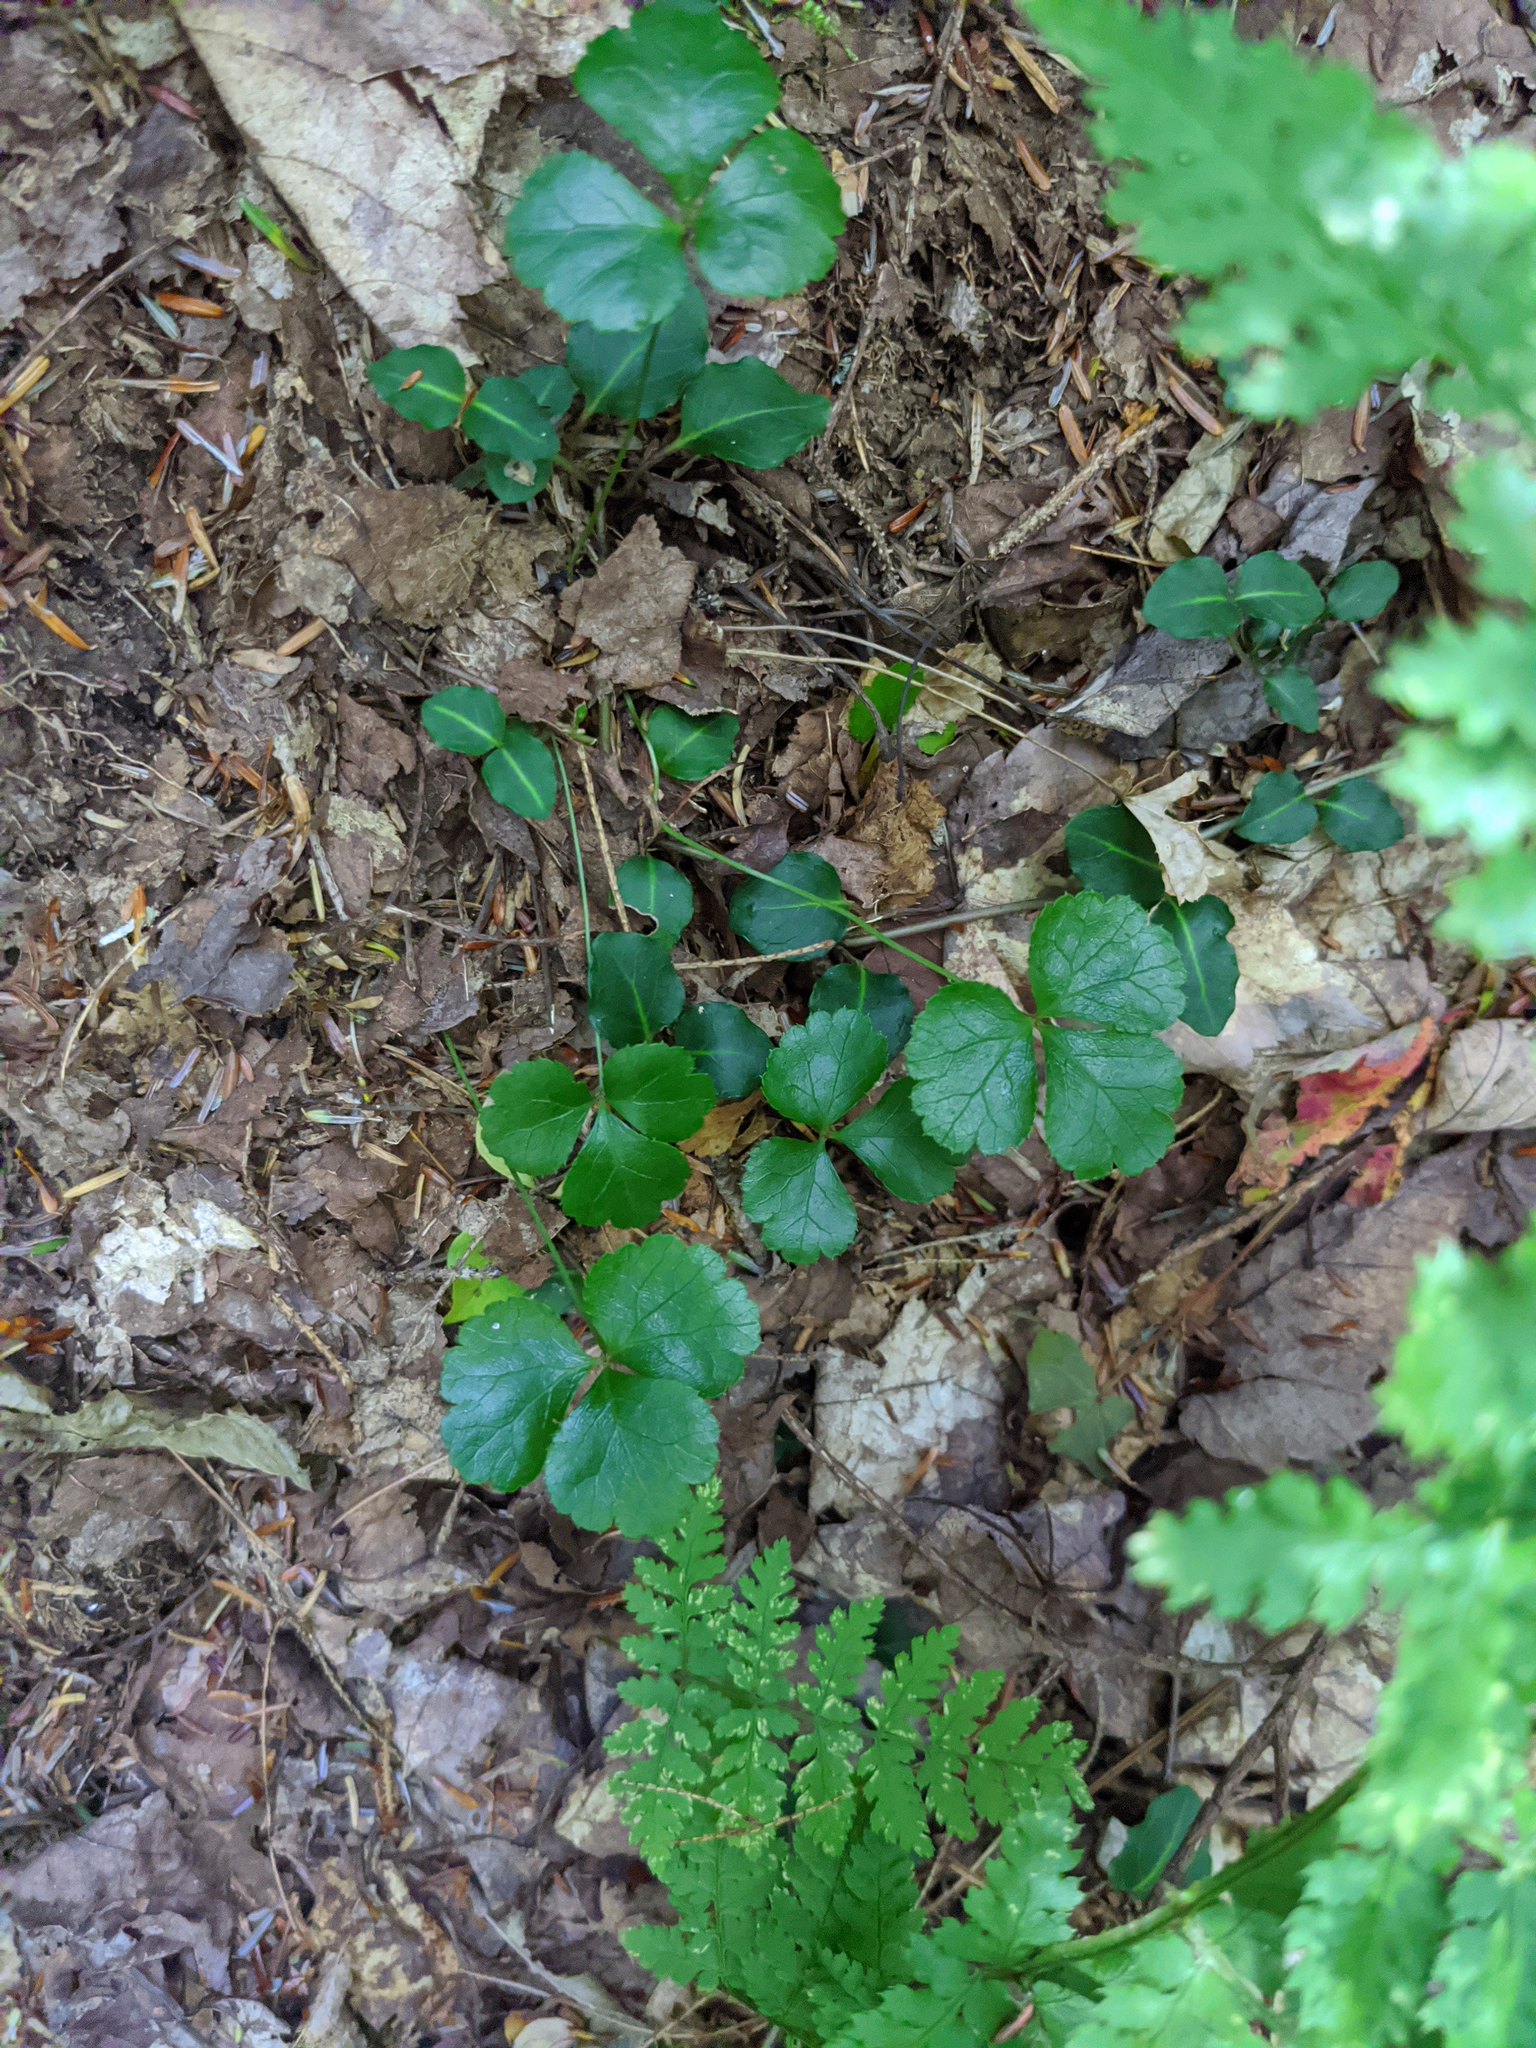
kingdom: Plantae
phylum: Tracheophyta
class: Magnoliopsida
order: Gentianales
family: Rubiaceae
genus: Mitchella
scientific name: Mitchella repens
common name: Partridge-berry
